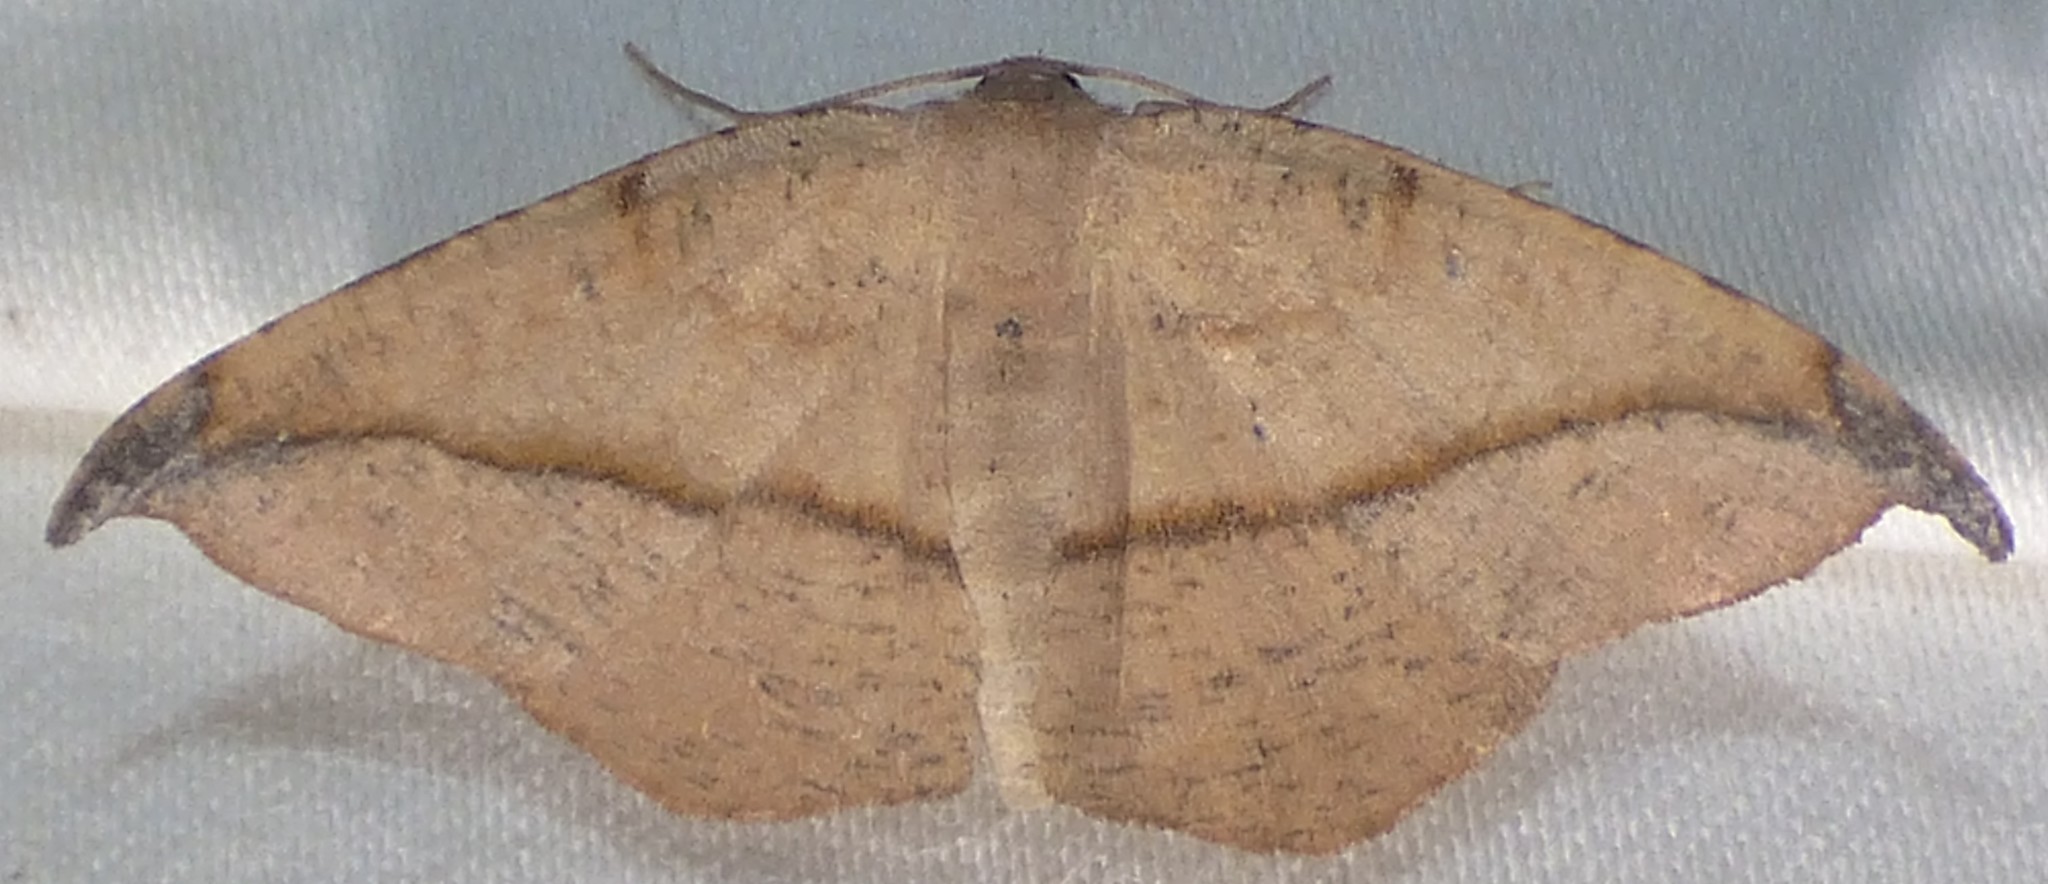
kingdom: Animalia
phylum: Arthropoda
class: Insecta
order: Lepidoptera
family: Geometridae
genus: Patalene
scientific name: Patalene olyzonaria
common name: Juniper geometer moth
